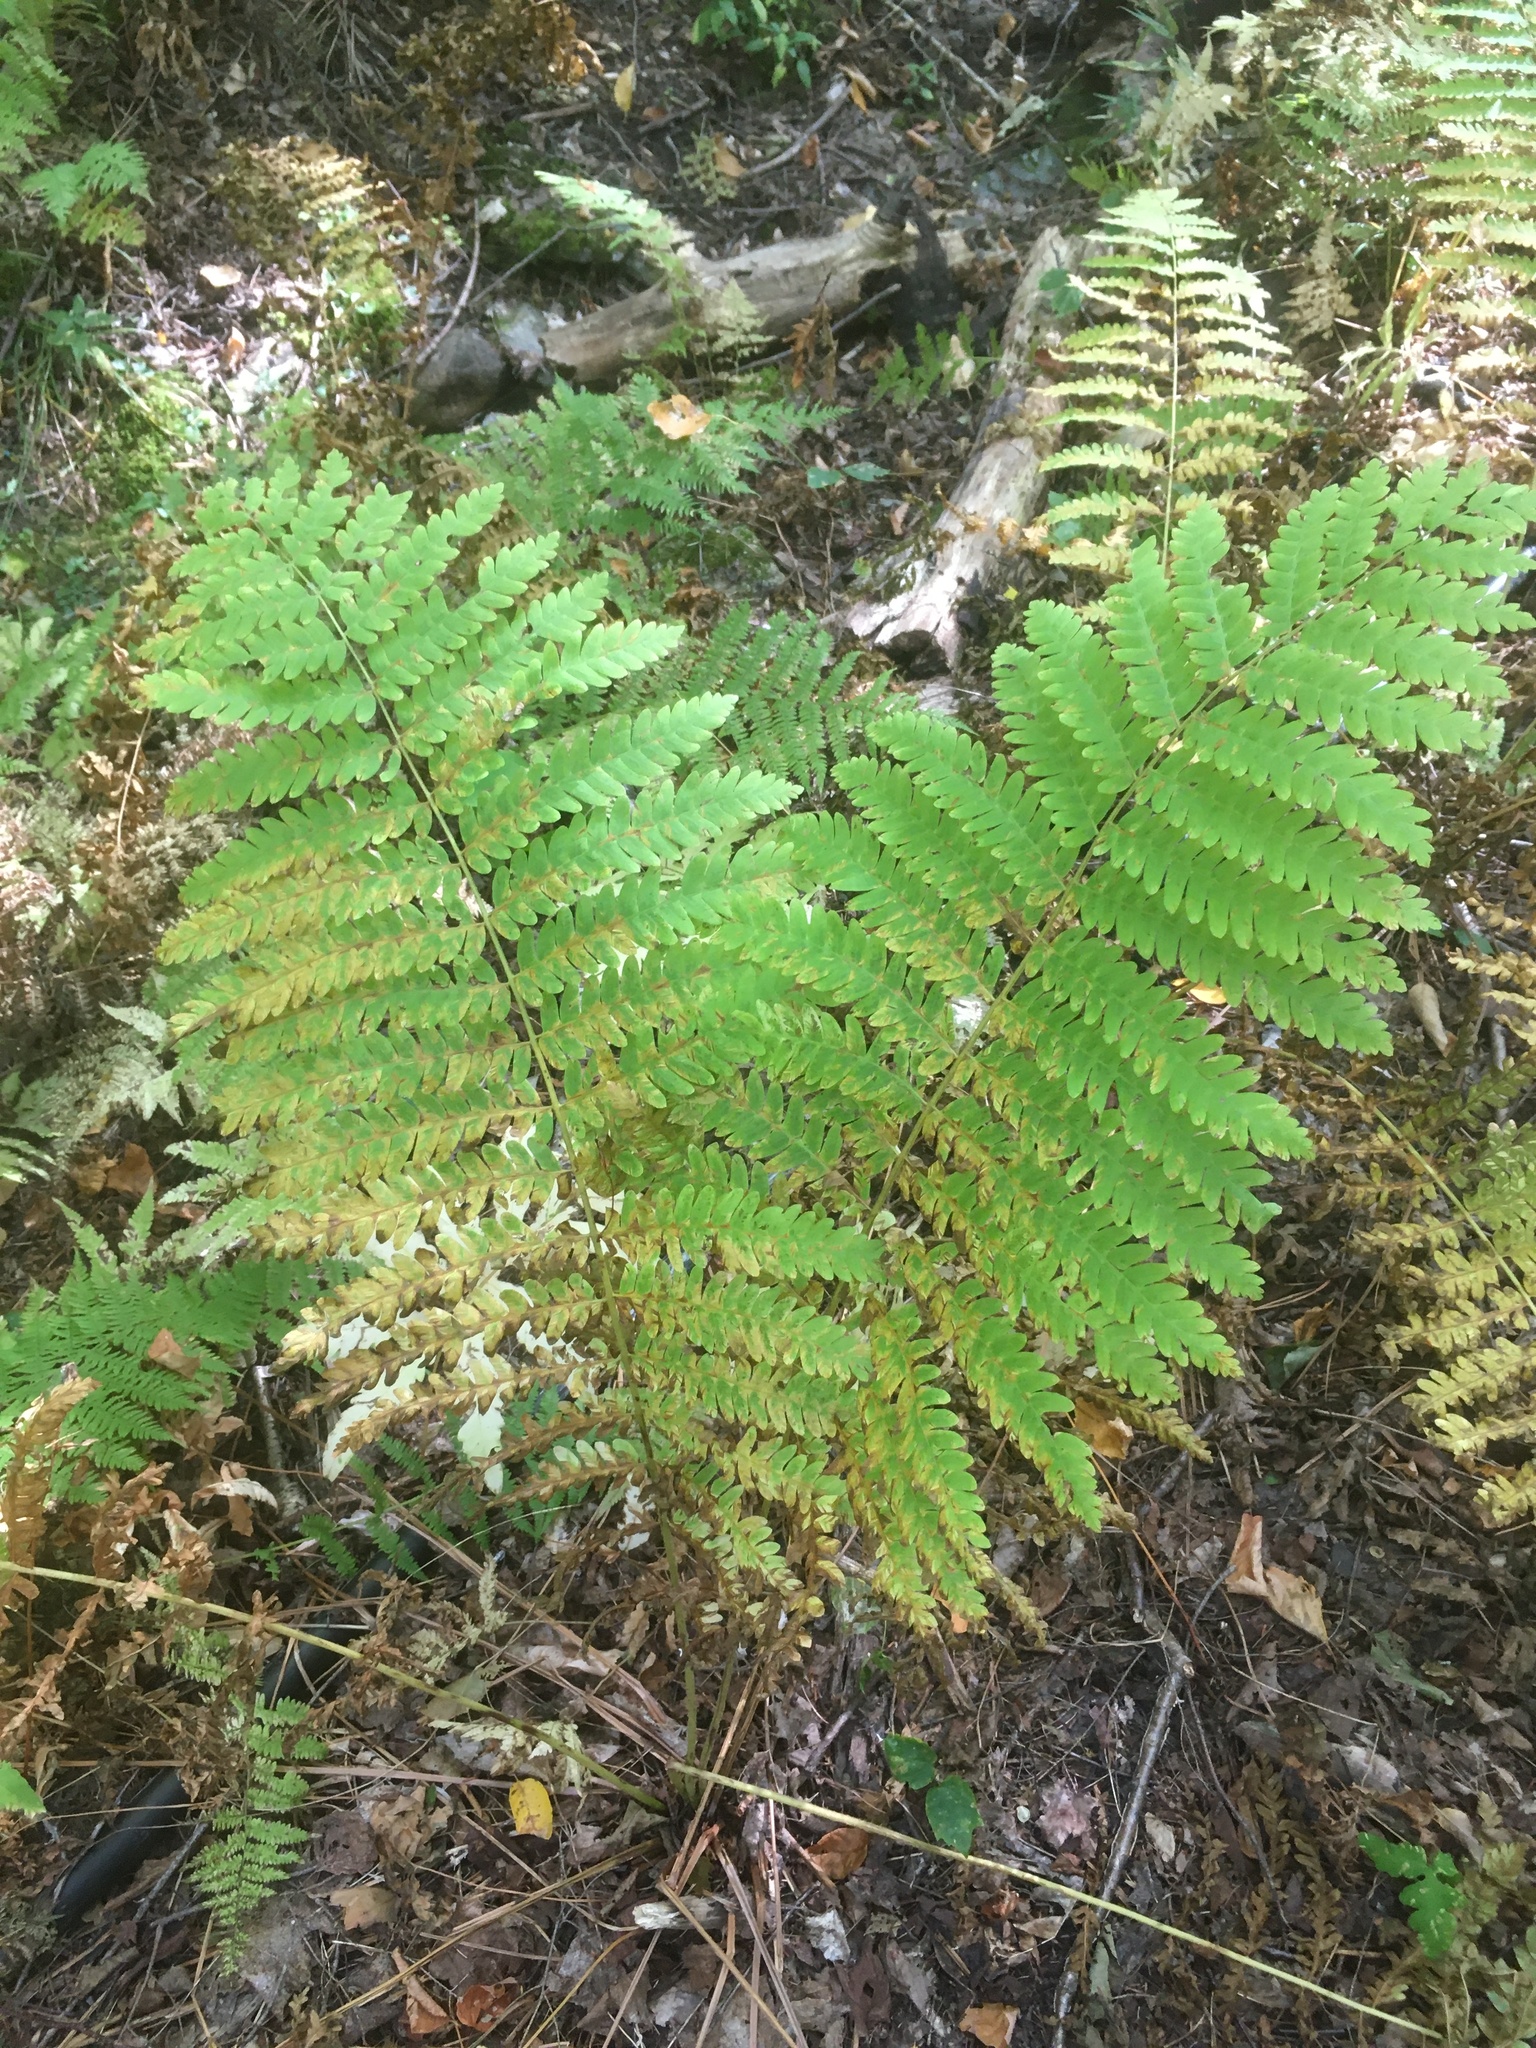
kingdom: Plantae
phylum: Tracheophyta
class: Polypodiopsida
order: Osmundales
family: Osmundaceae
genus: Claytosmunda
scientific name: Claytosmunda claytoniana
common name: Clayton's fern
